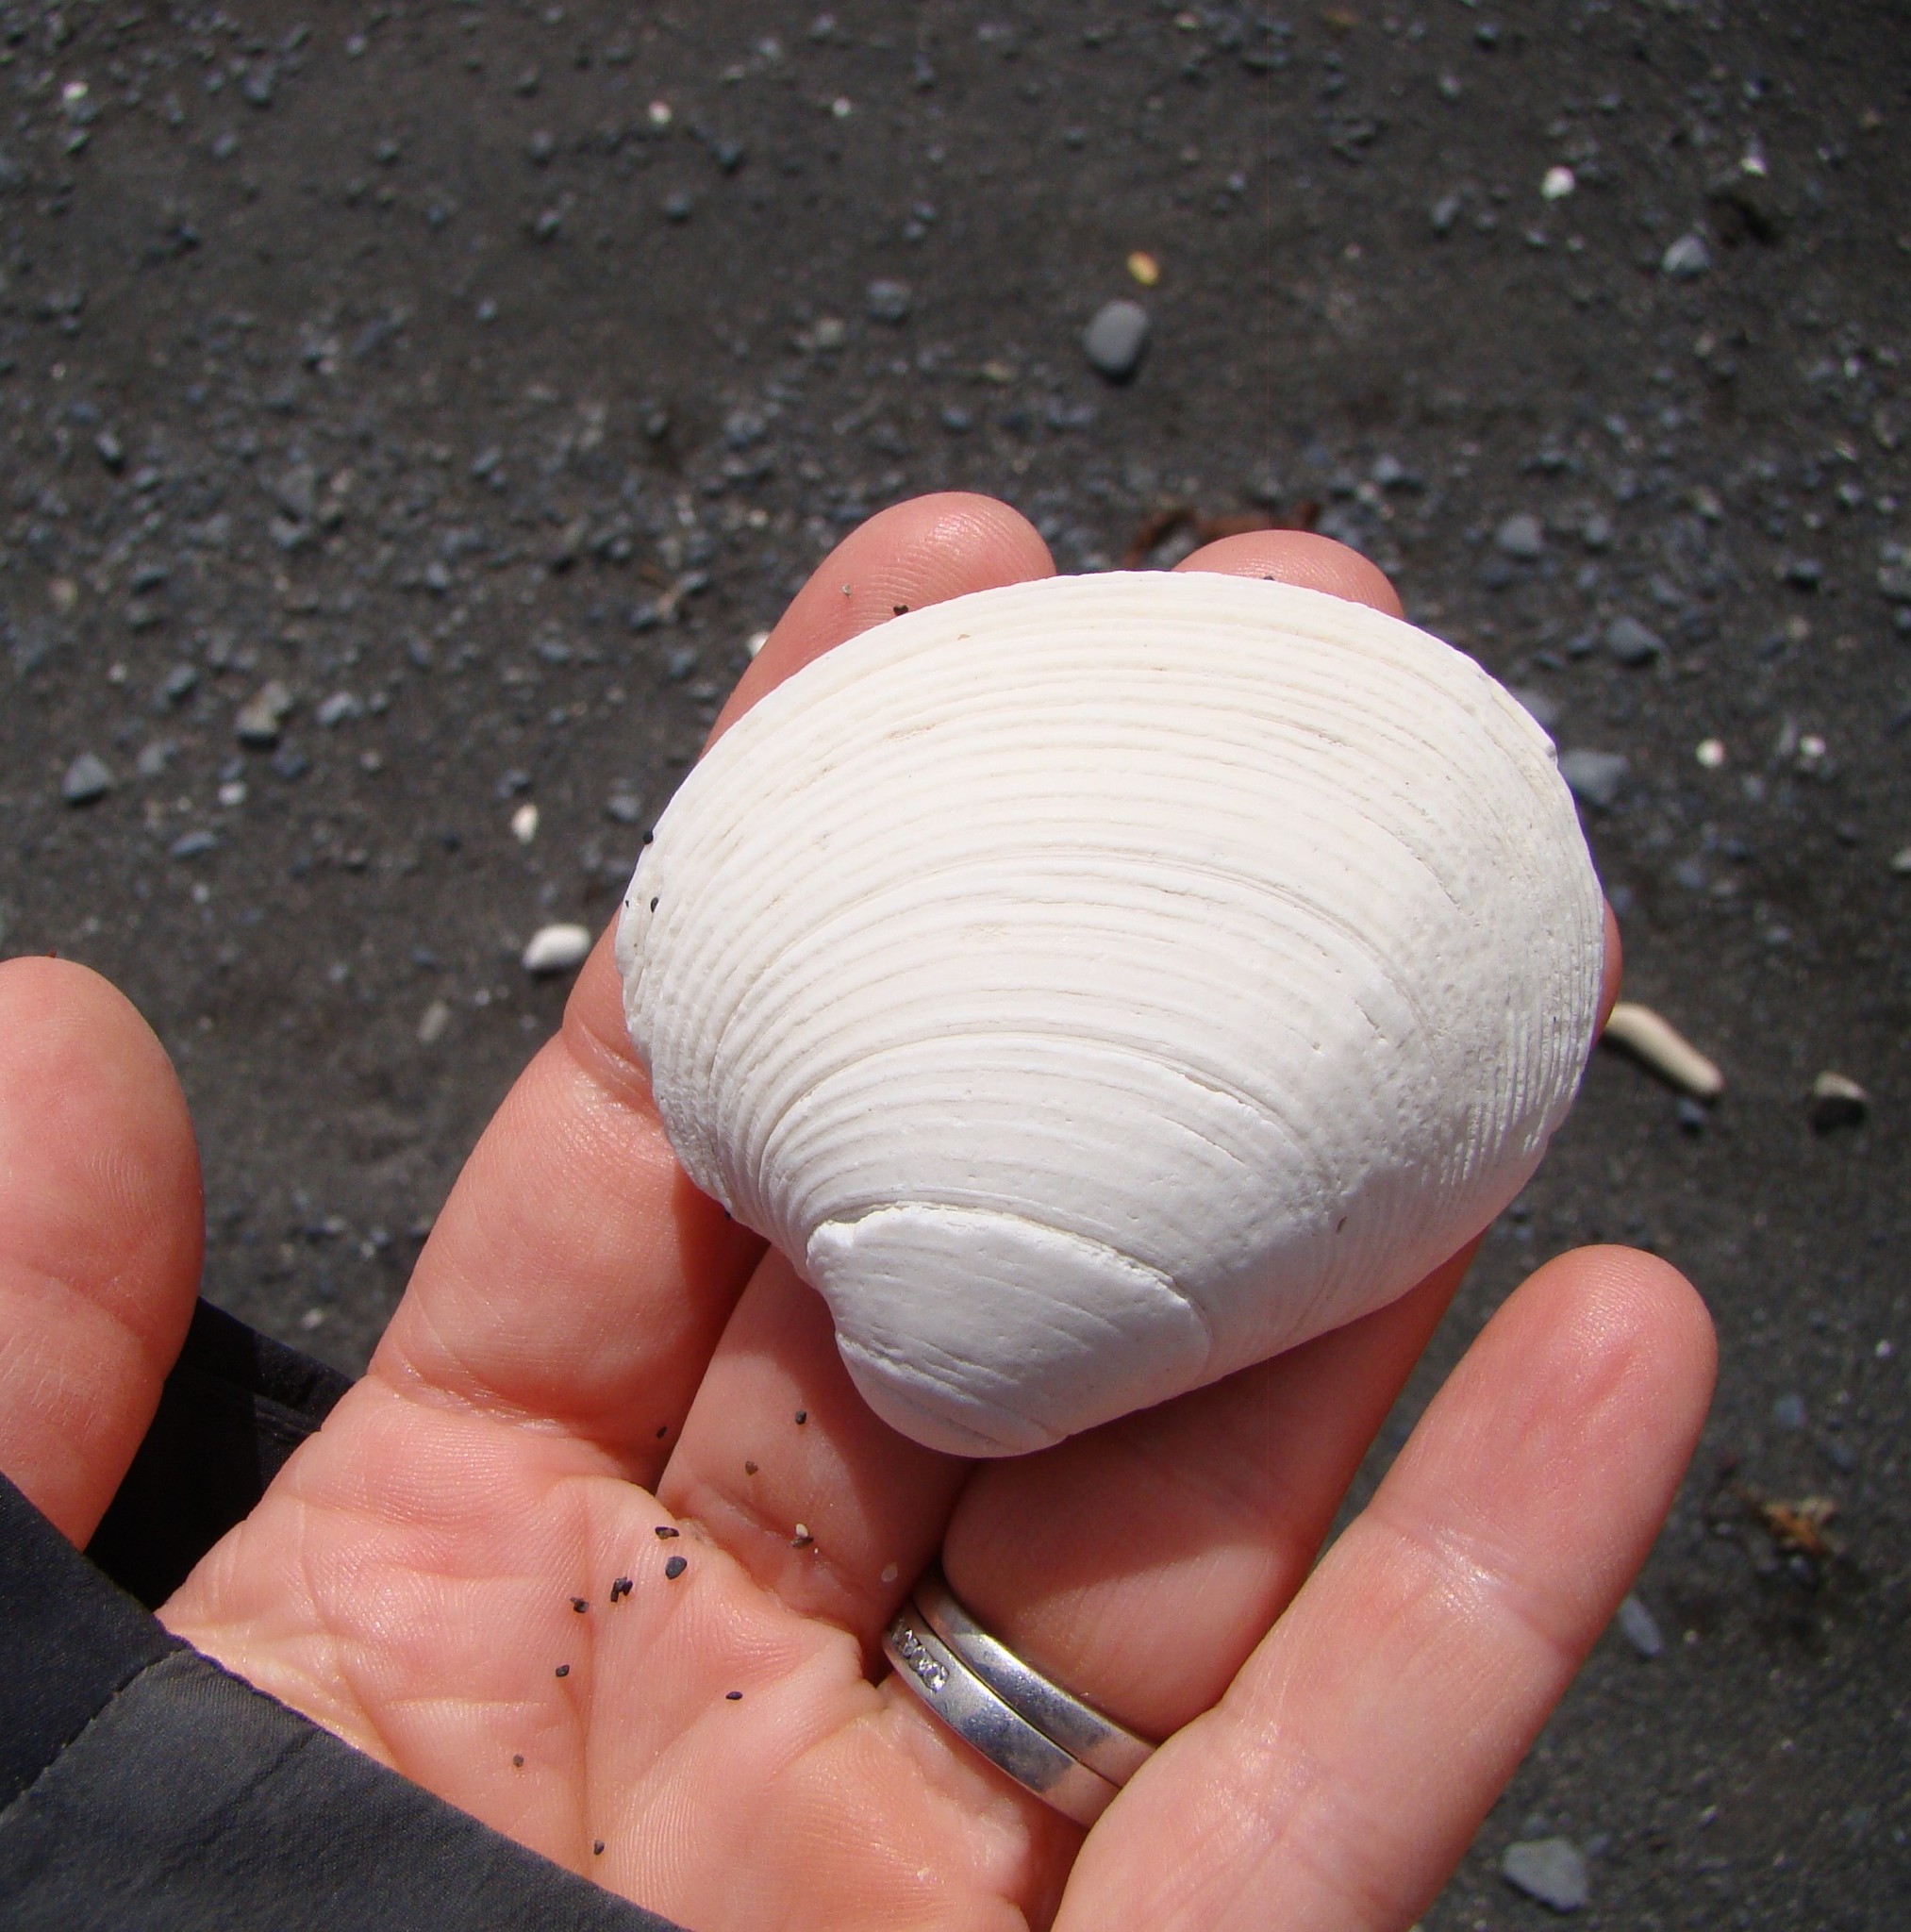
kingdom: Animalia
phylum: Mollusca
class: Bivalvia
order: Venerida
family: Veneridae
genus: Dosina
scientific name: Dosina mactracea
